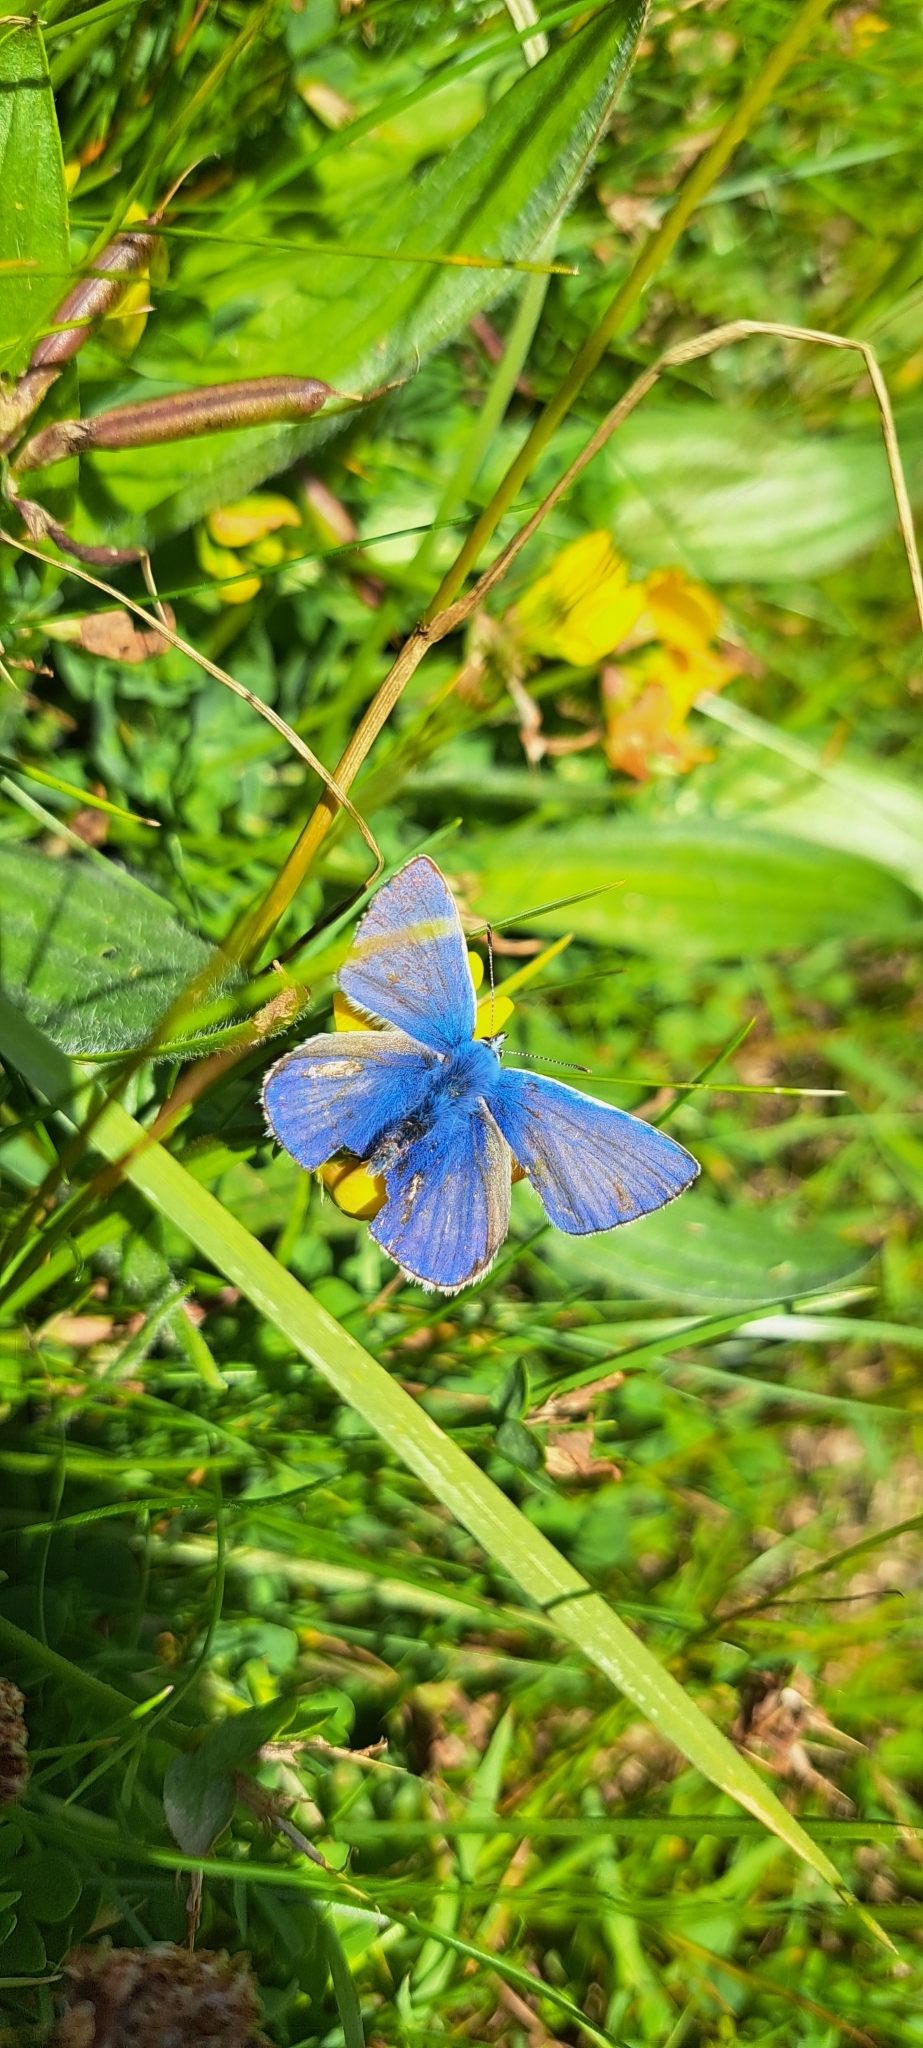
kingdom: Animalia
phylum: Arthropoda
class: Insecta
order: Lepidoptera
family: Lycaenidae
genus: Polyommatus
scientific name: Polyommatus icarus
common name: Common blue
